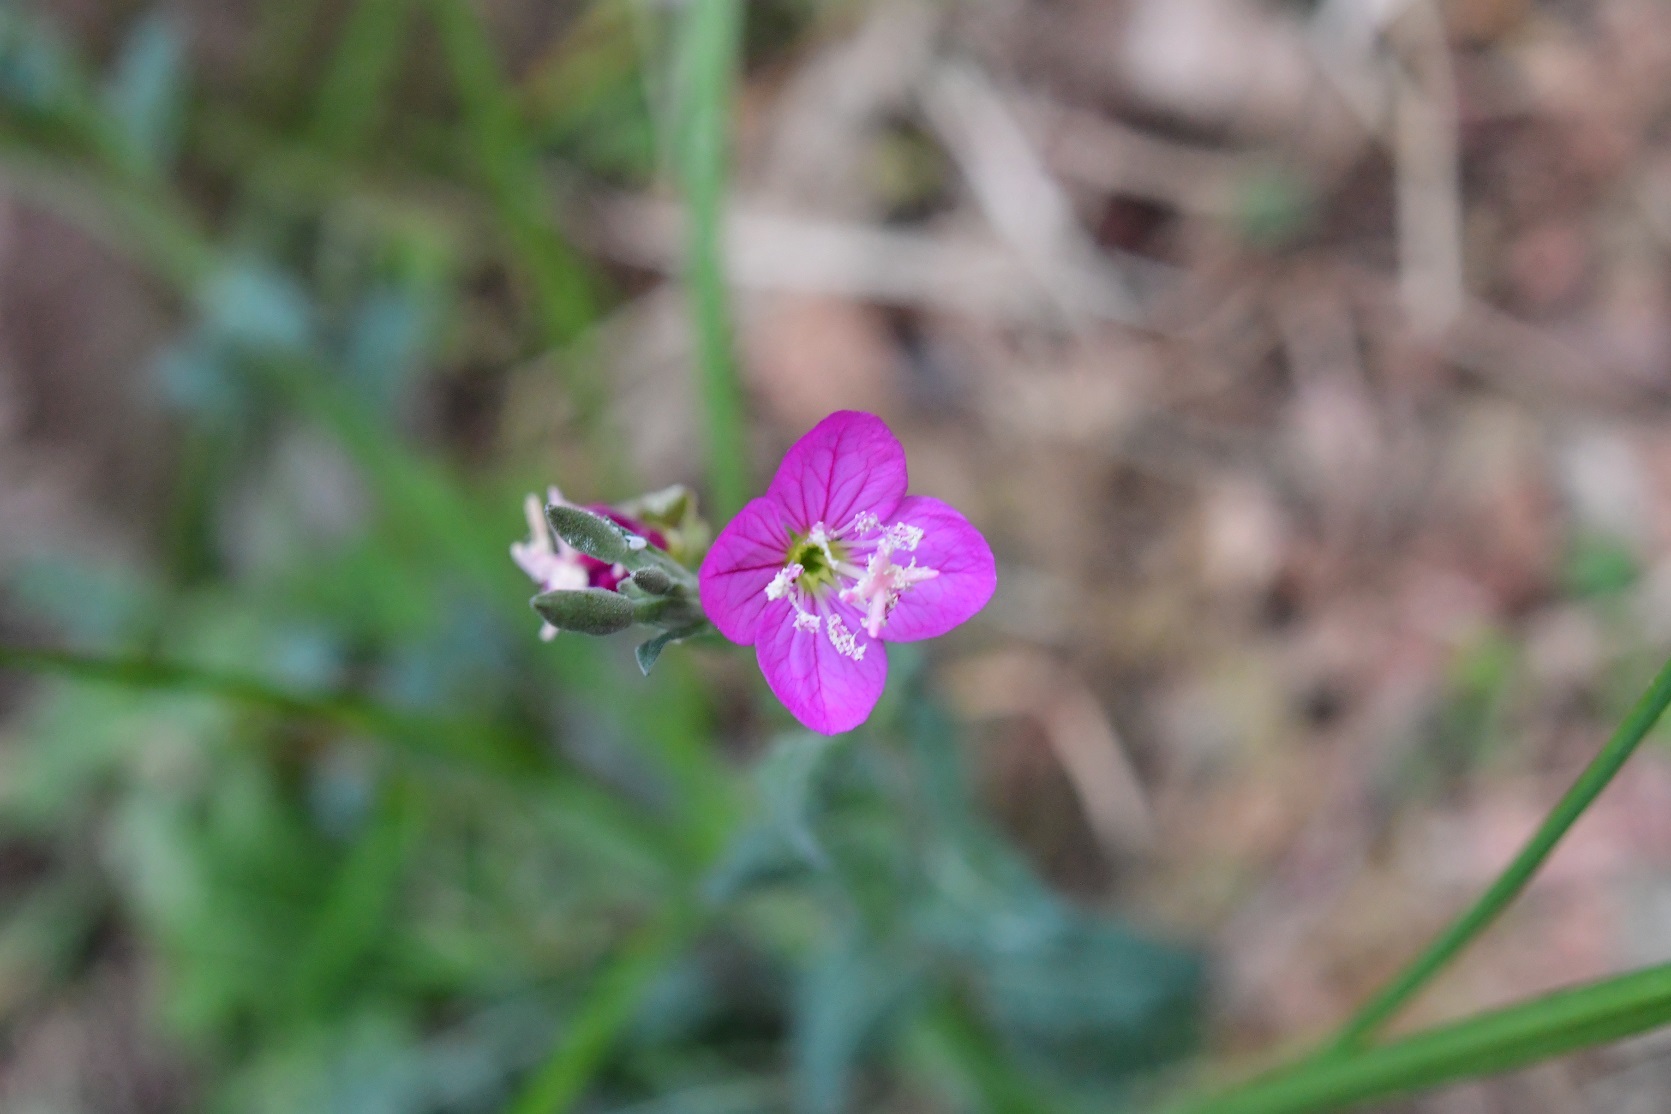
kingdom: Plantae
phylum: Tracheophyta
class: Magnoliopsida
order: Myrtales
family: Onagraceae
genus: Oenothera
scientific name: Oenothera rosea
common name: Rosy evening-primrose
